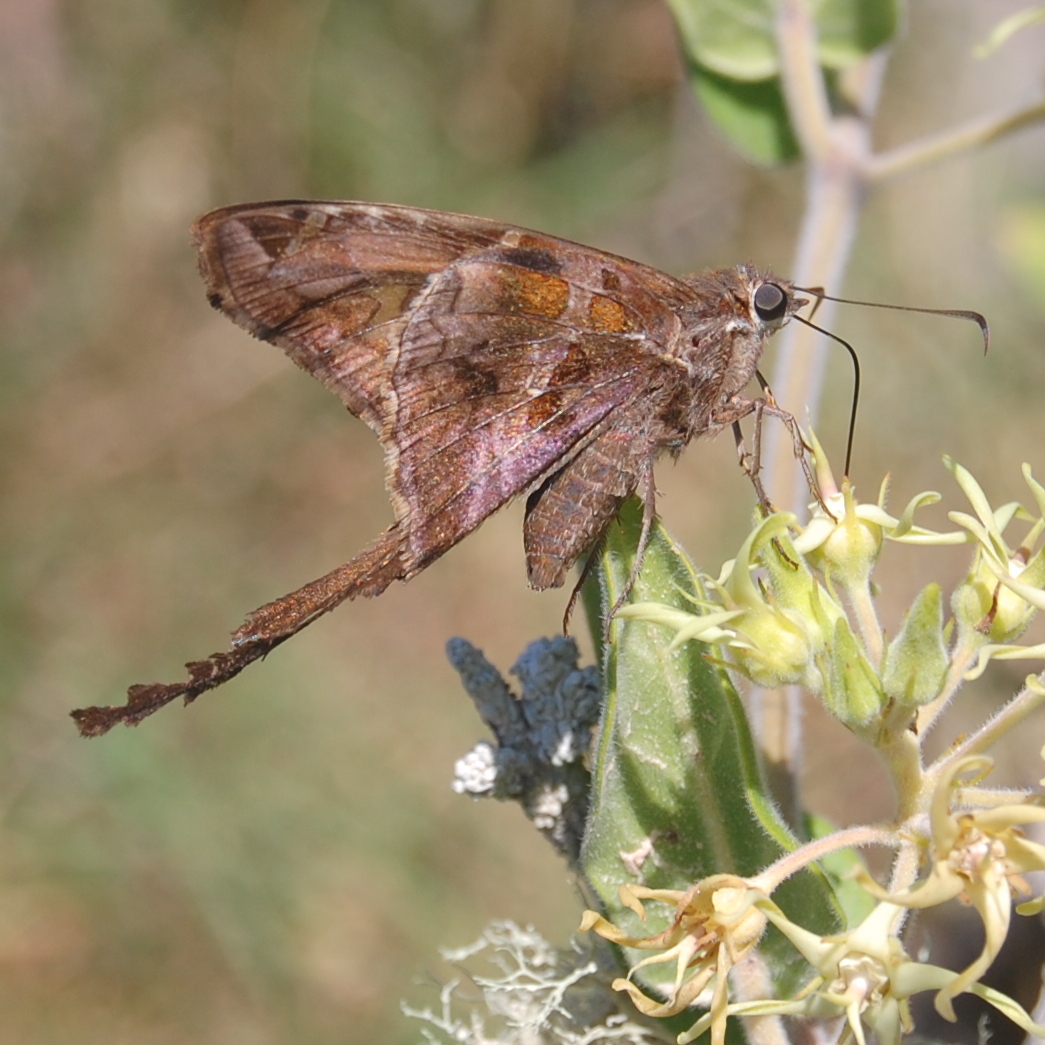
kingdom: Animalia
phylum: Arthropoda
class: Insecta
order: Lepidoptera
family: Hesperiidae
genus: Chioides
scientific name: Chioides catillus
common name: Silverbanded skipper
